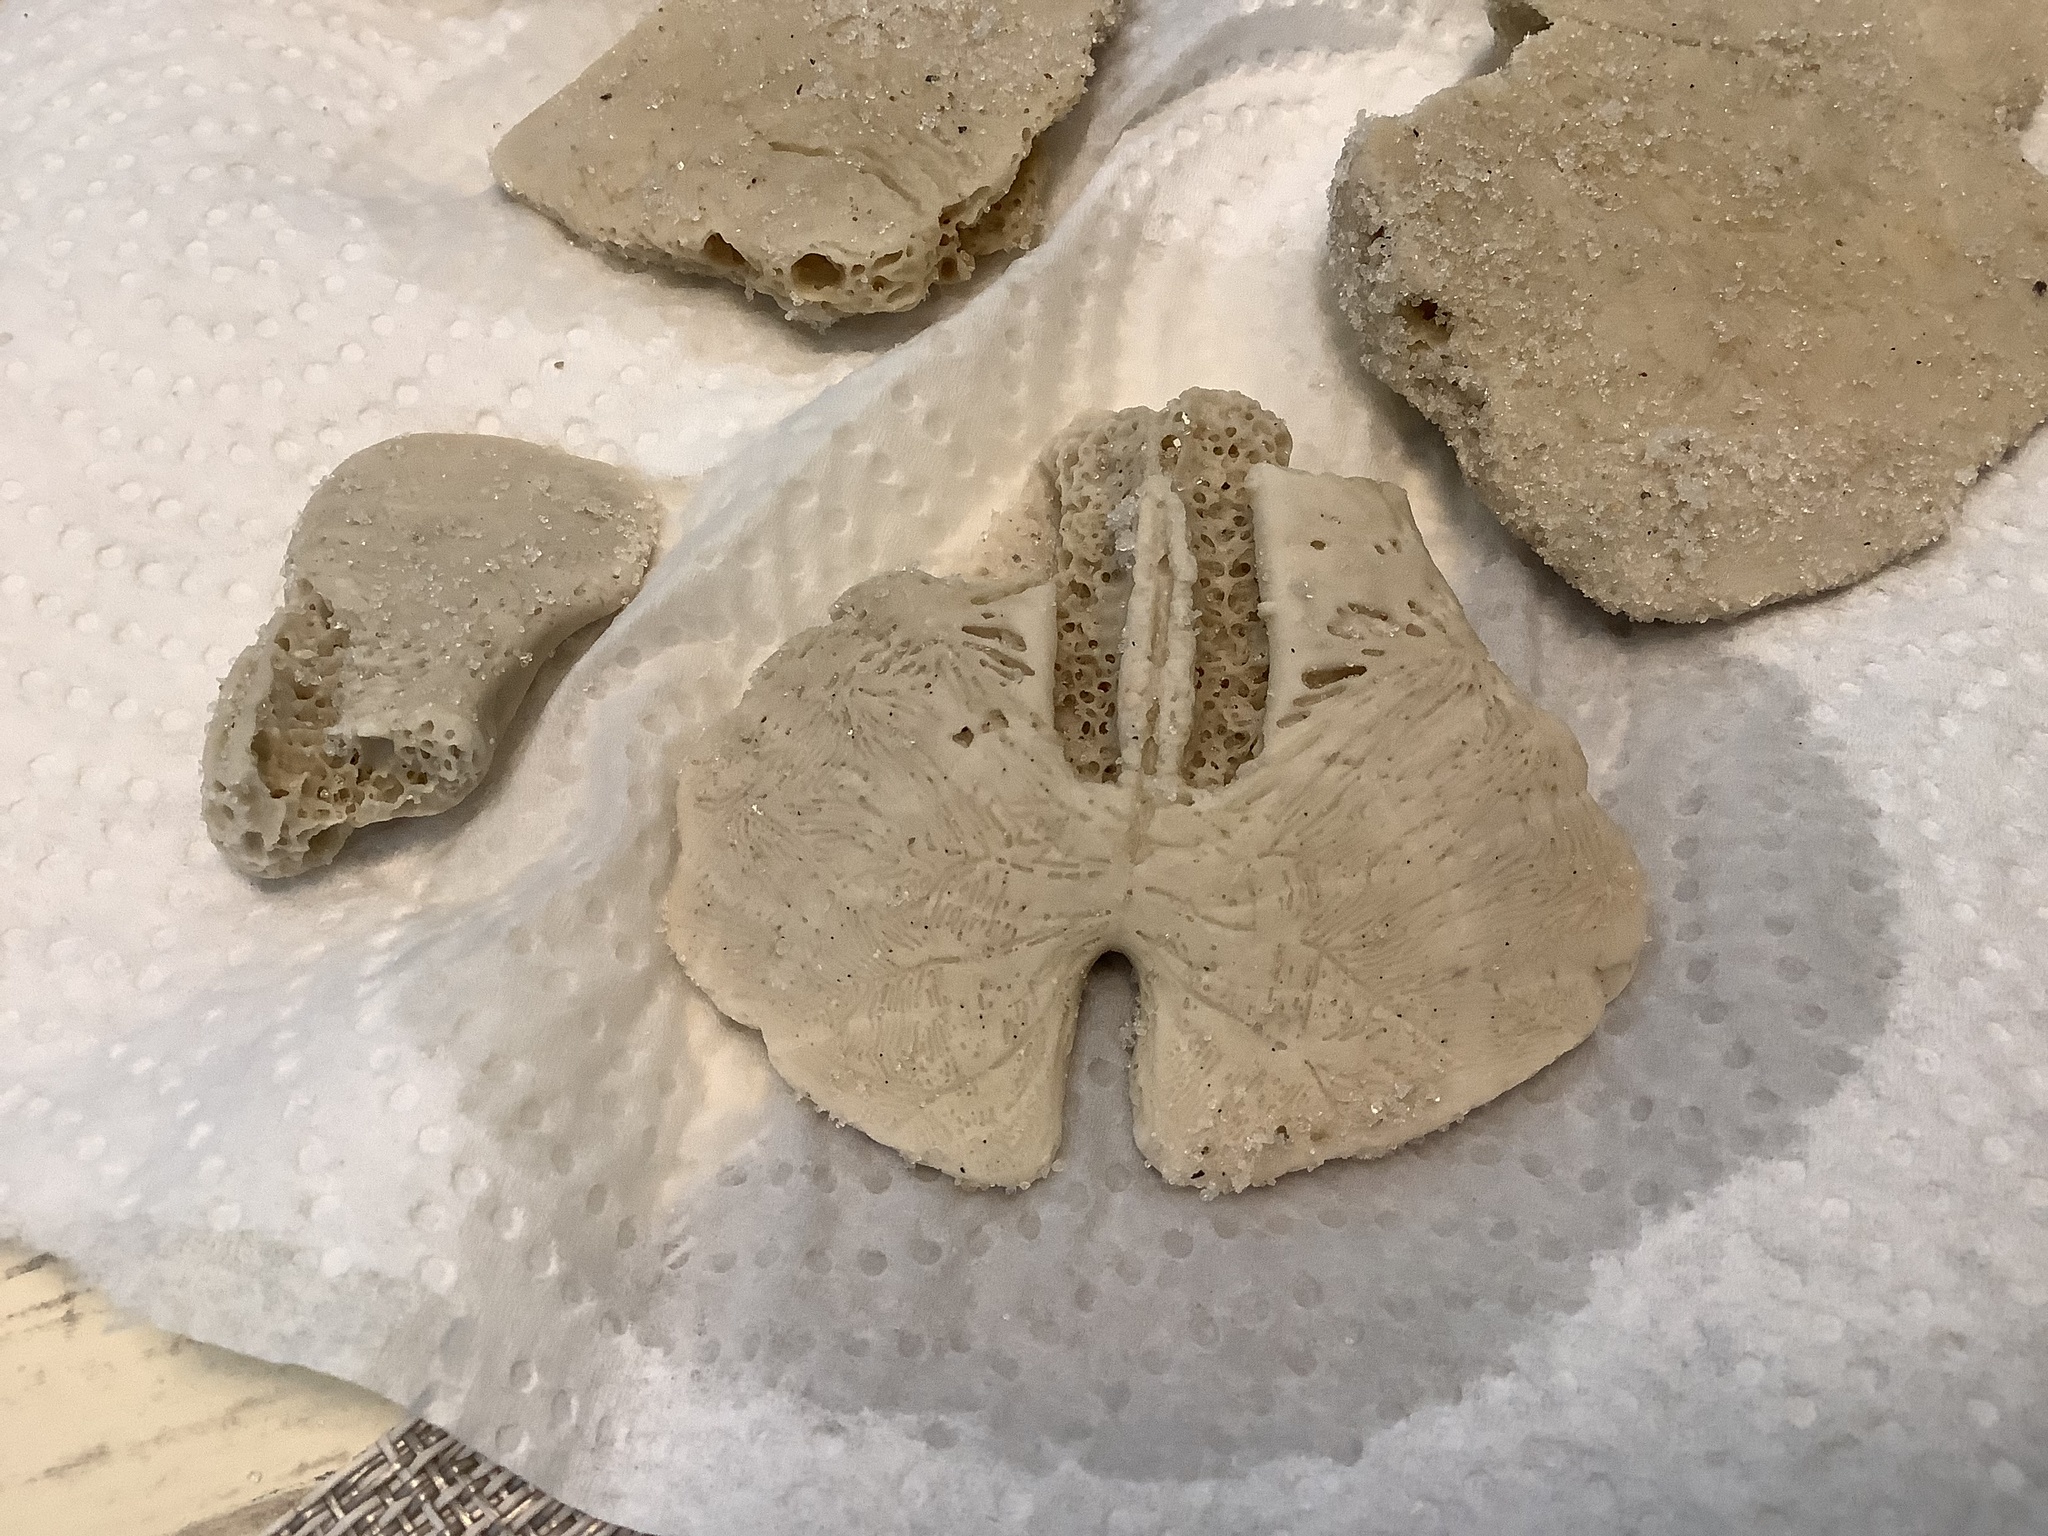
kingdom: Animalia
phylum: Echinodermata
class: Echinoidea
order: Echinolampadacea
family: Mellitidae
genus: Mellita
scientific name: Mellita quinquiesperforata
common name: Sand dollar
